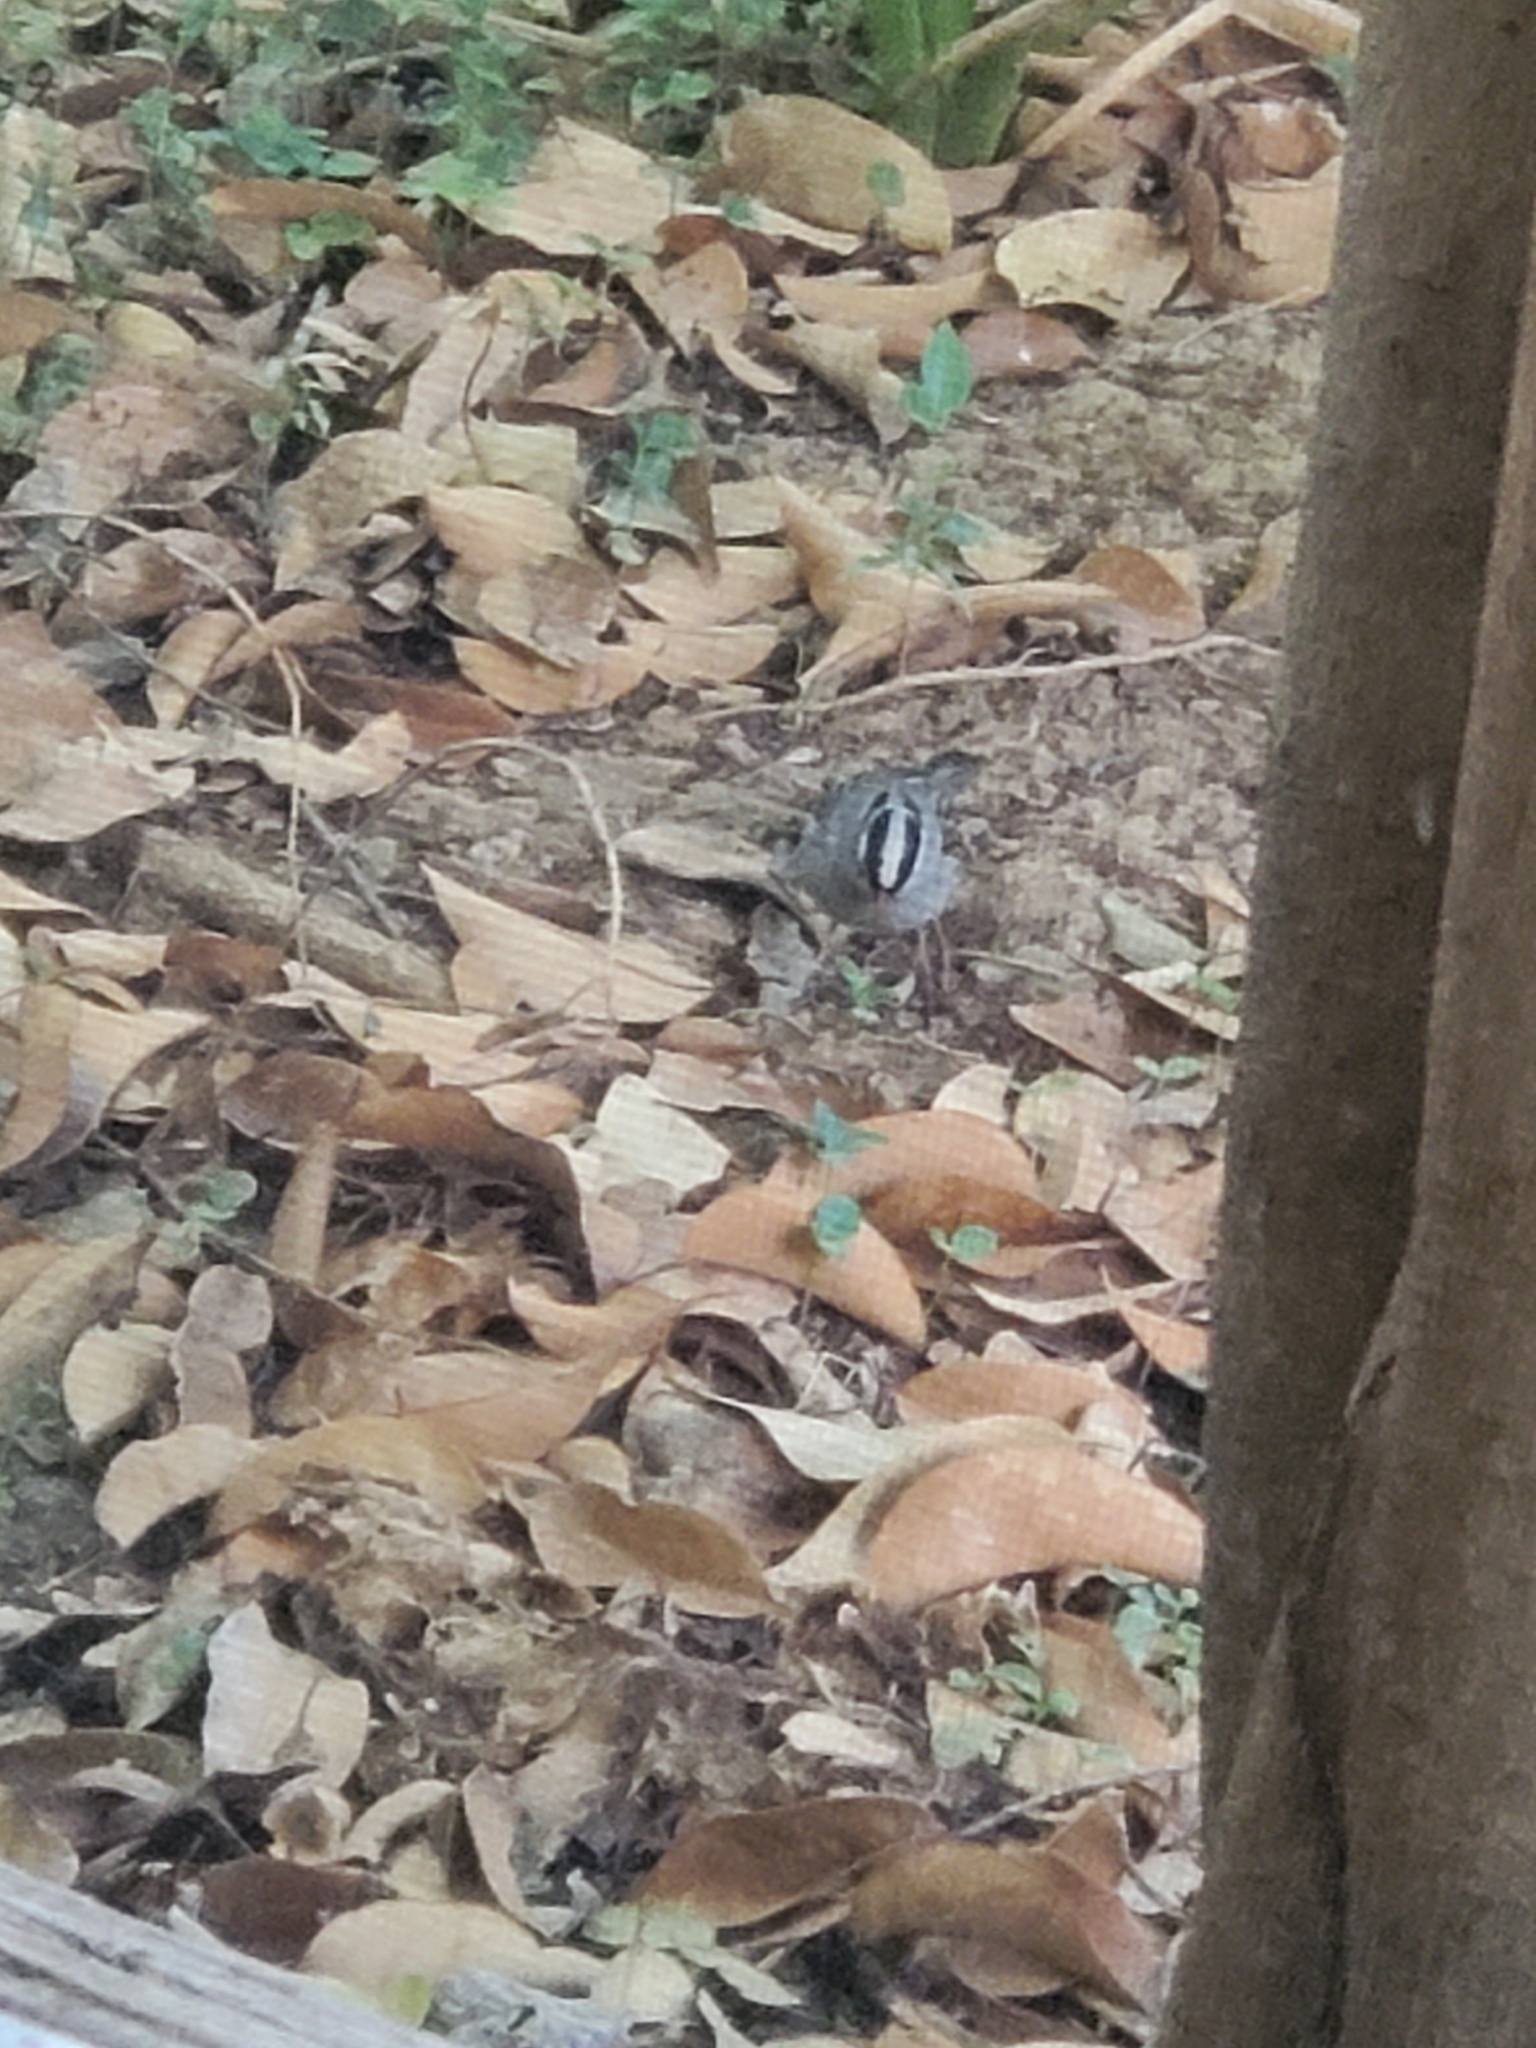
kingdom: Animalia
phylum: Chordata
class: Aves
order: Passeriformes
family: Passerellidae
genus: Zonotrichia
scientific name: Zonotrichia leucophrys
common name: White-crowned sparrow
